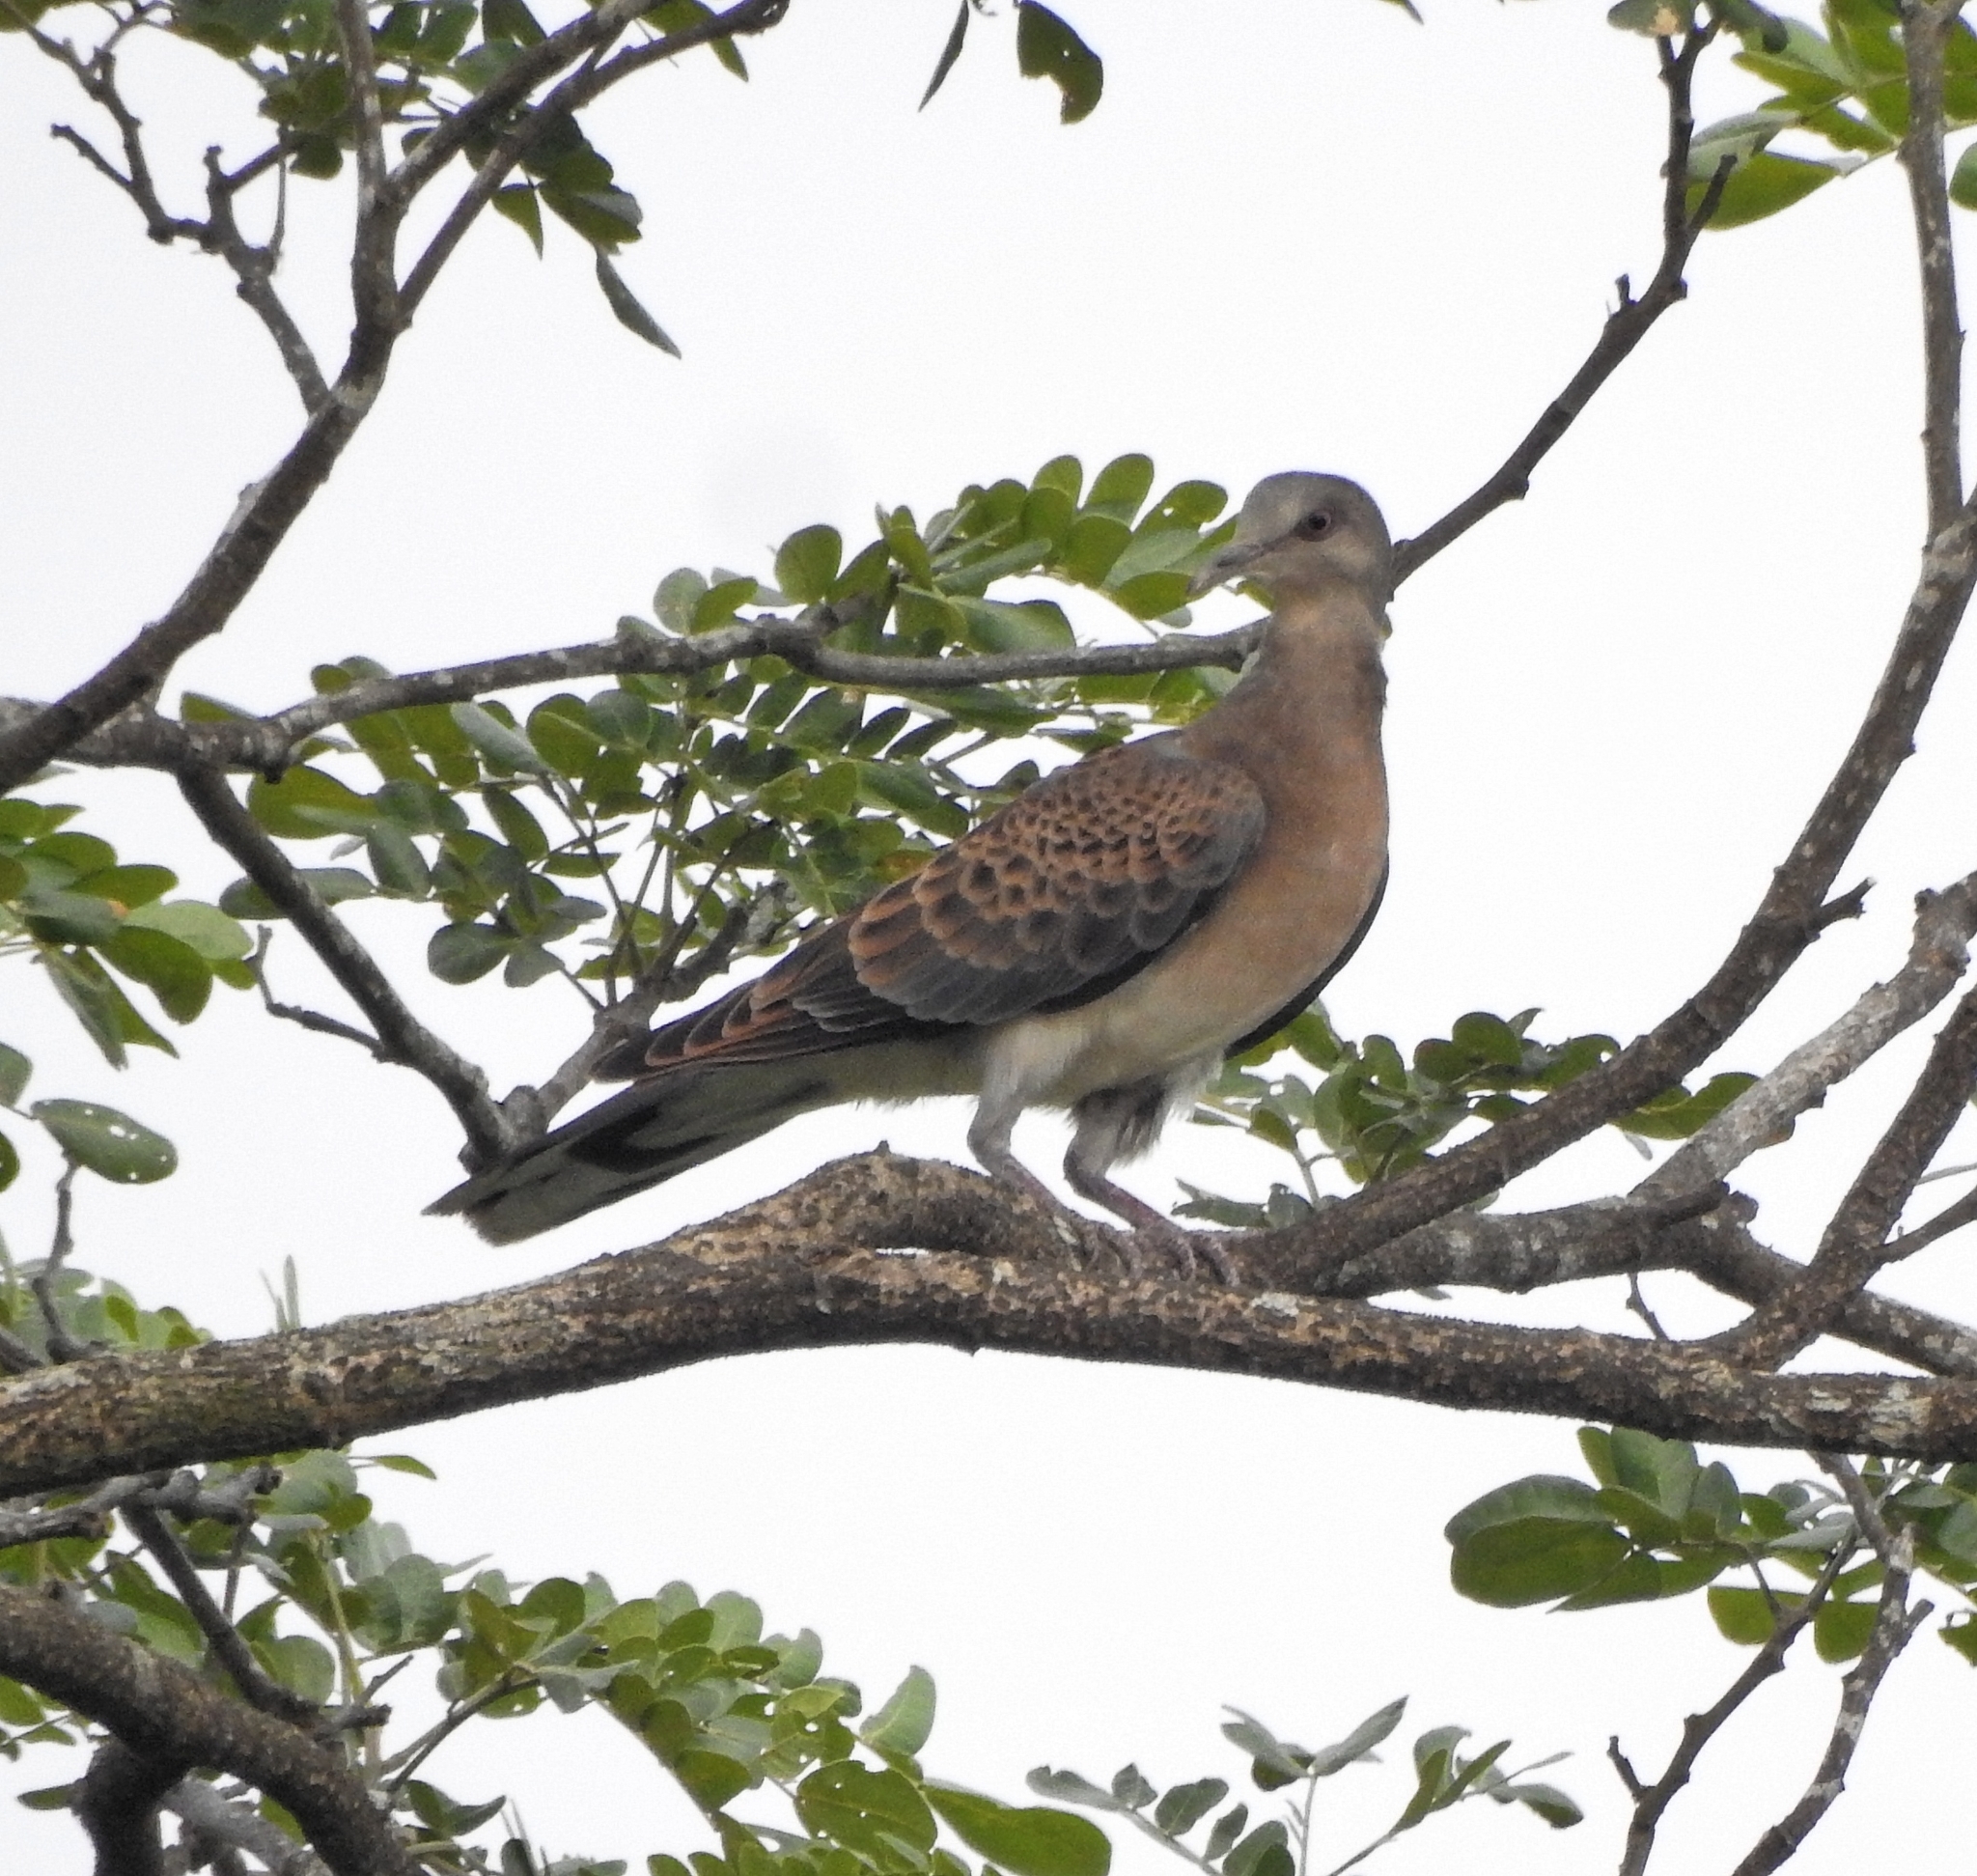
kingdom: Animalia
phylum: Chordata
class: Aves
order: Columbiformes
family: Columbidae
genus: Streptopelia
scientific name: Streptopelia orientalis
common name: Oriental turtle dove
